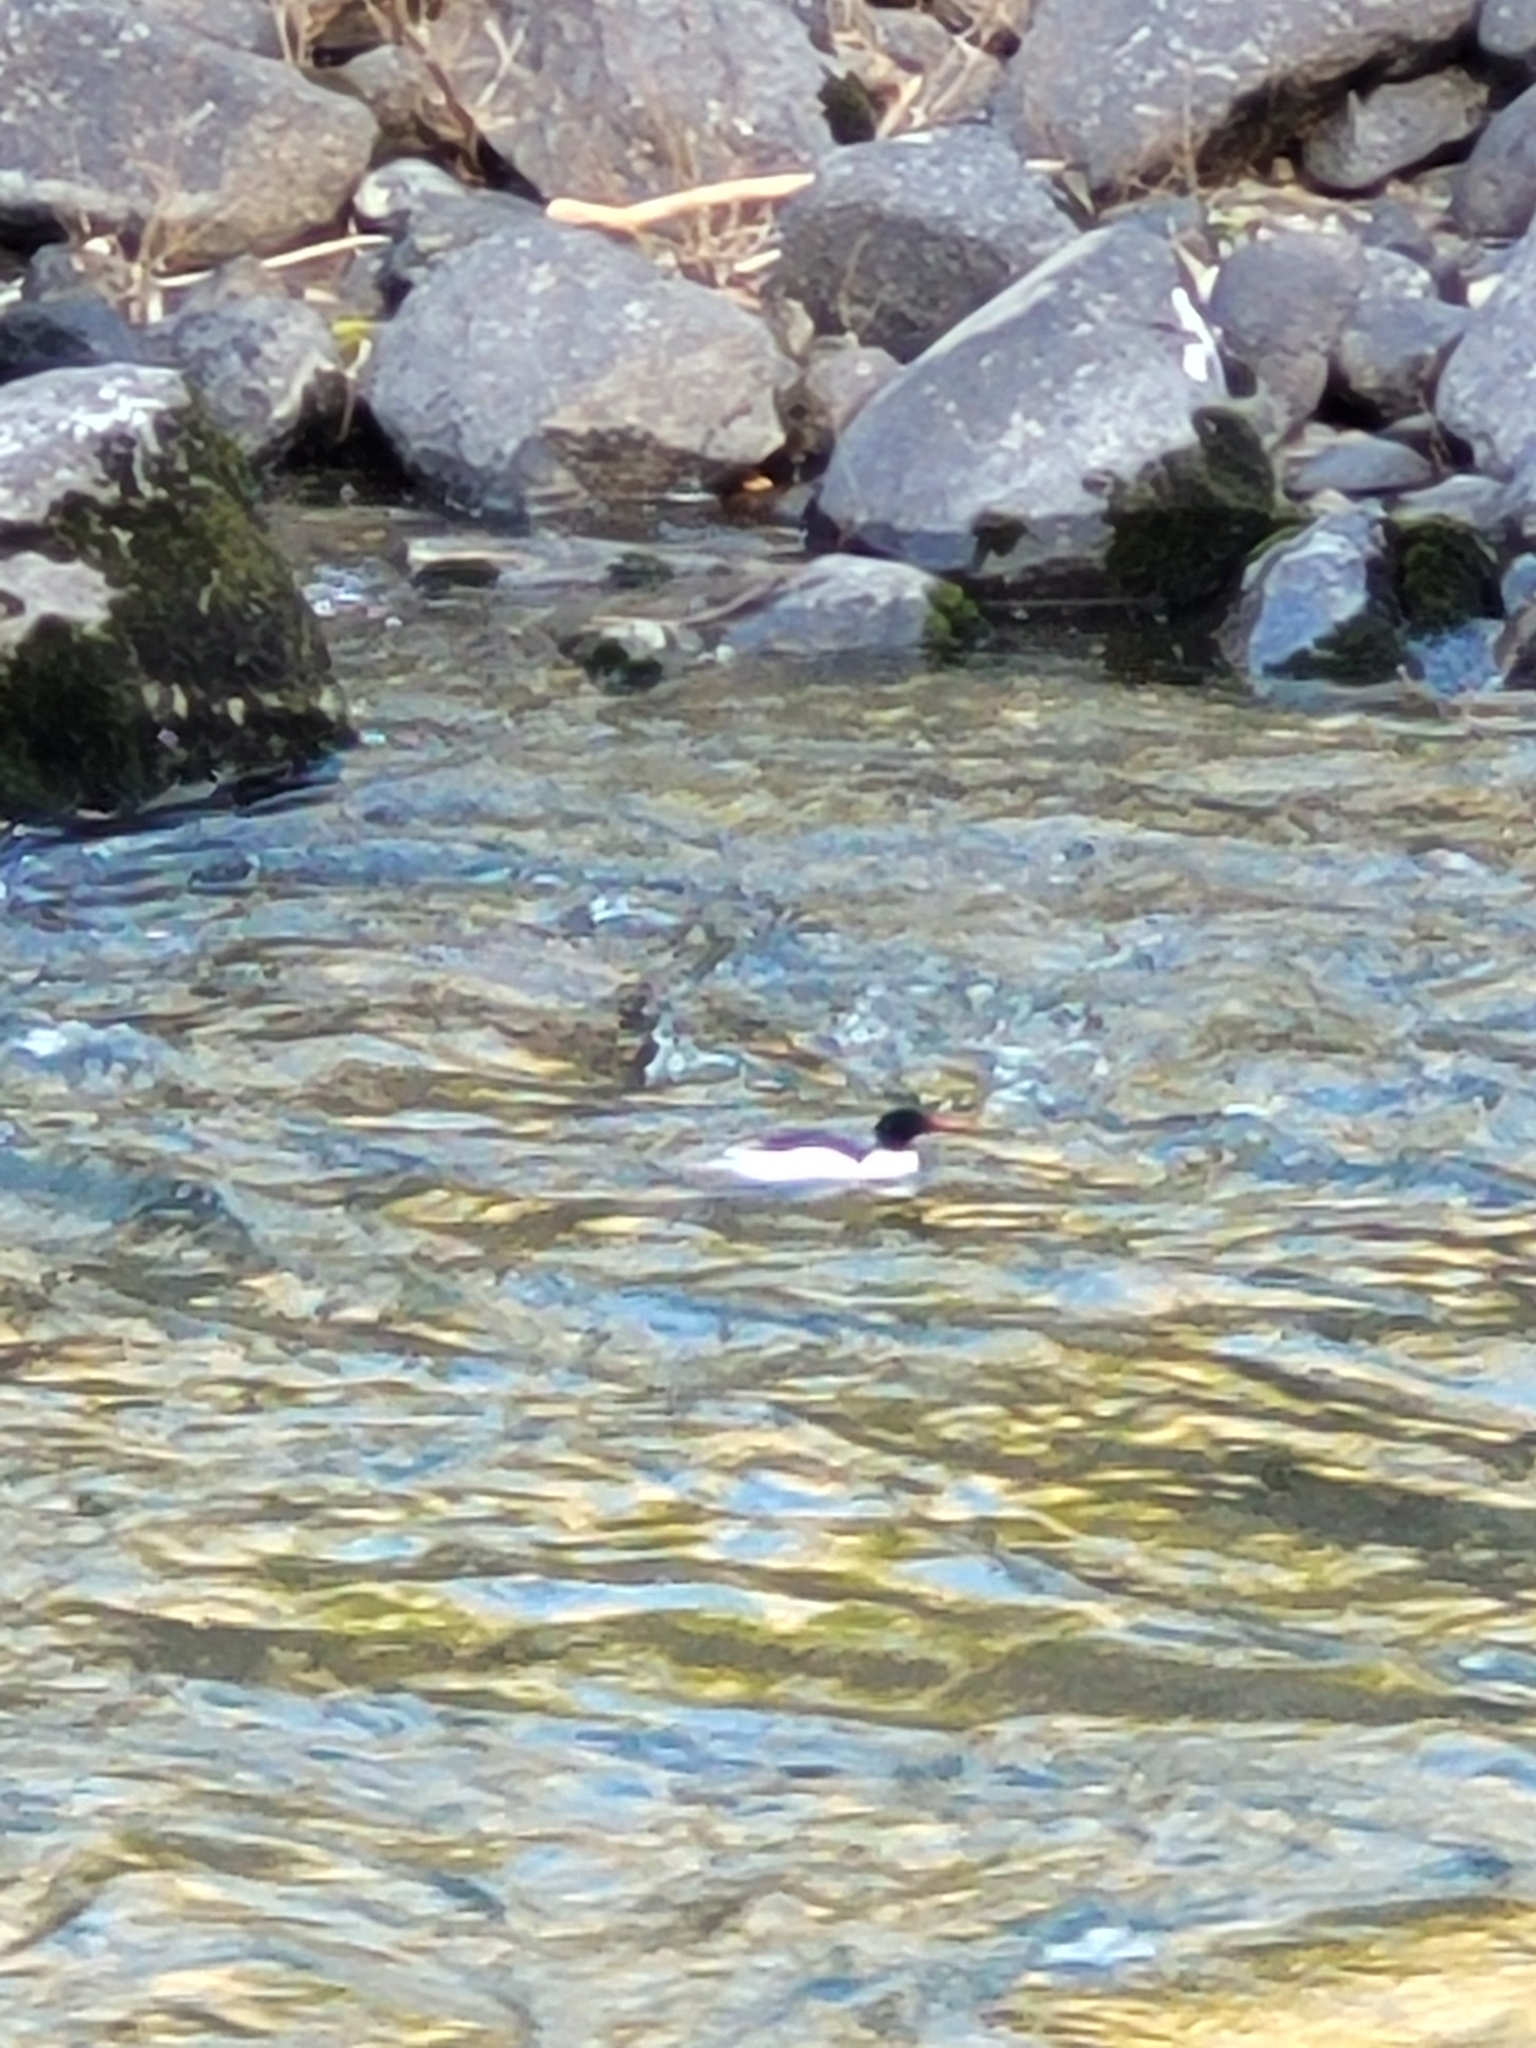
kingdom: Animalia
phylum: Chordata
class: Aves
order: Anseriformes
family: Anatidae
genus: Mergus
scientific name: Mergus merganser
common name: Common merganser
